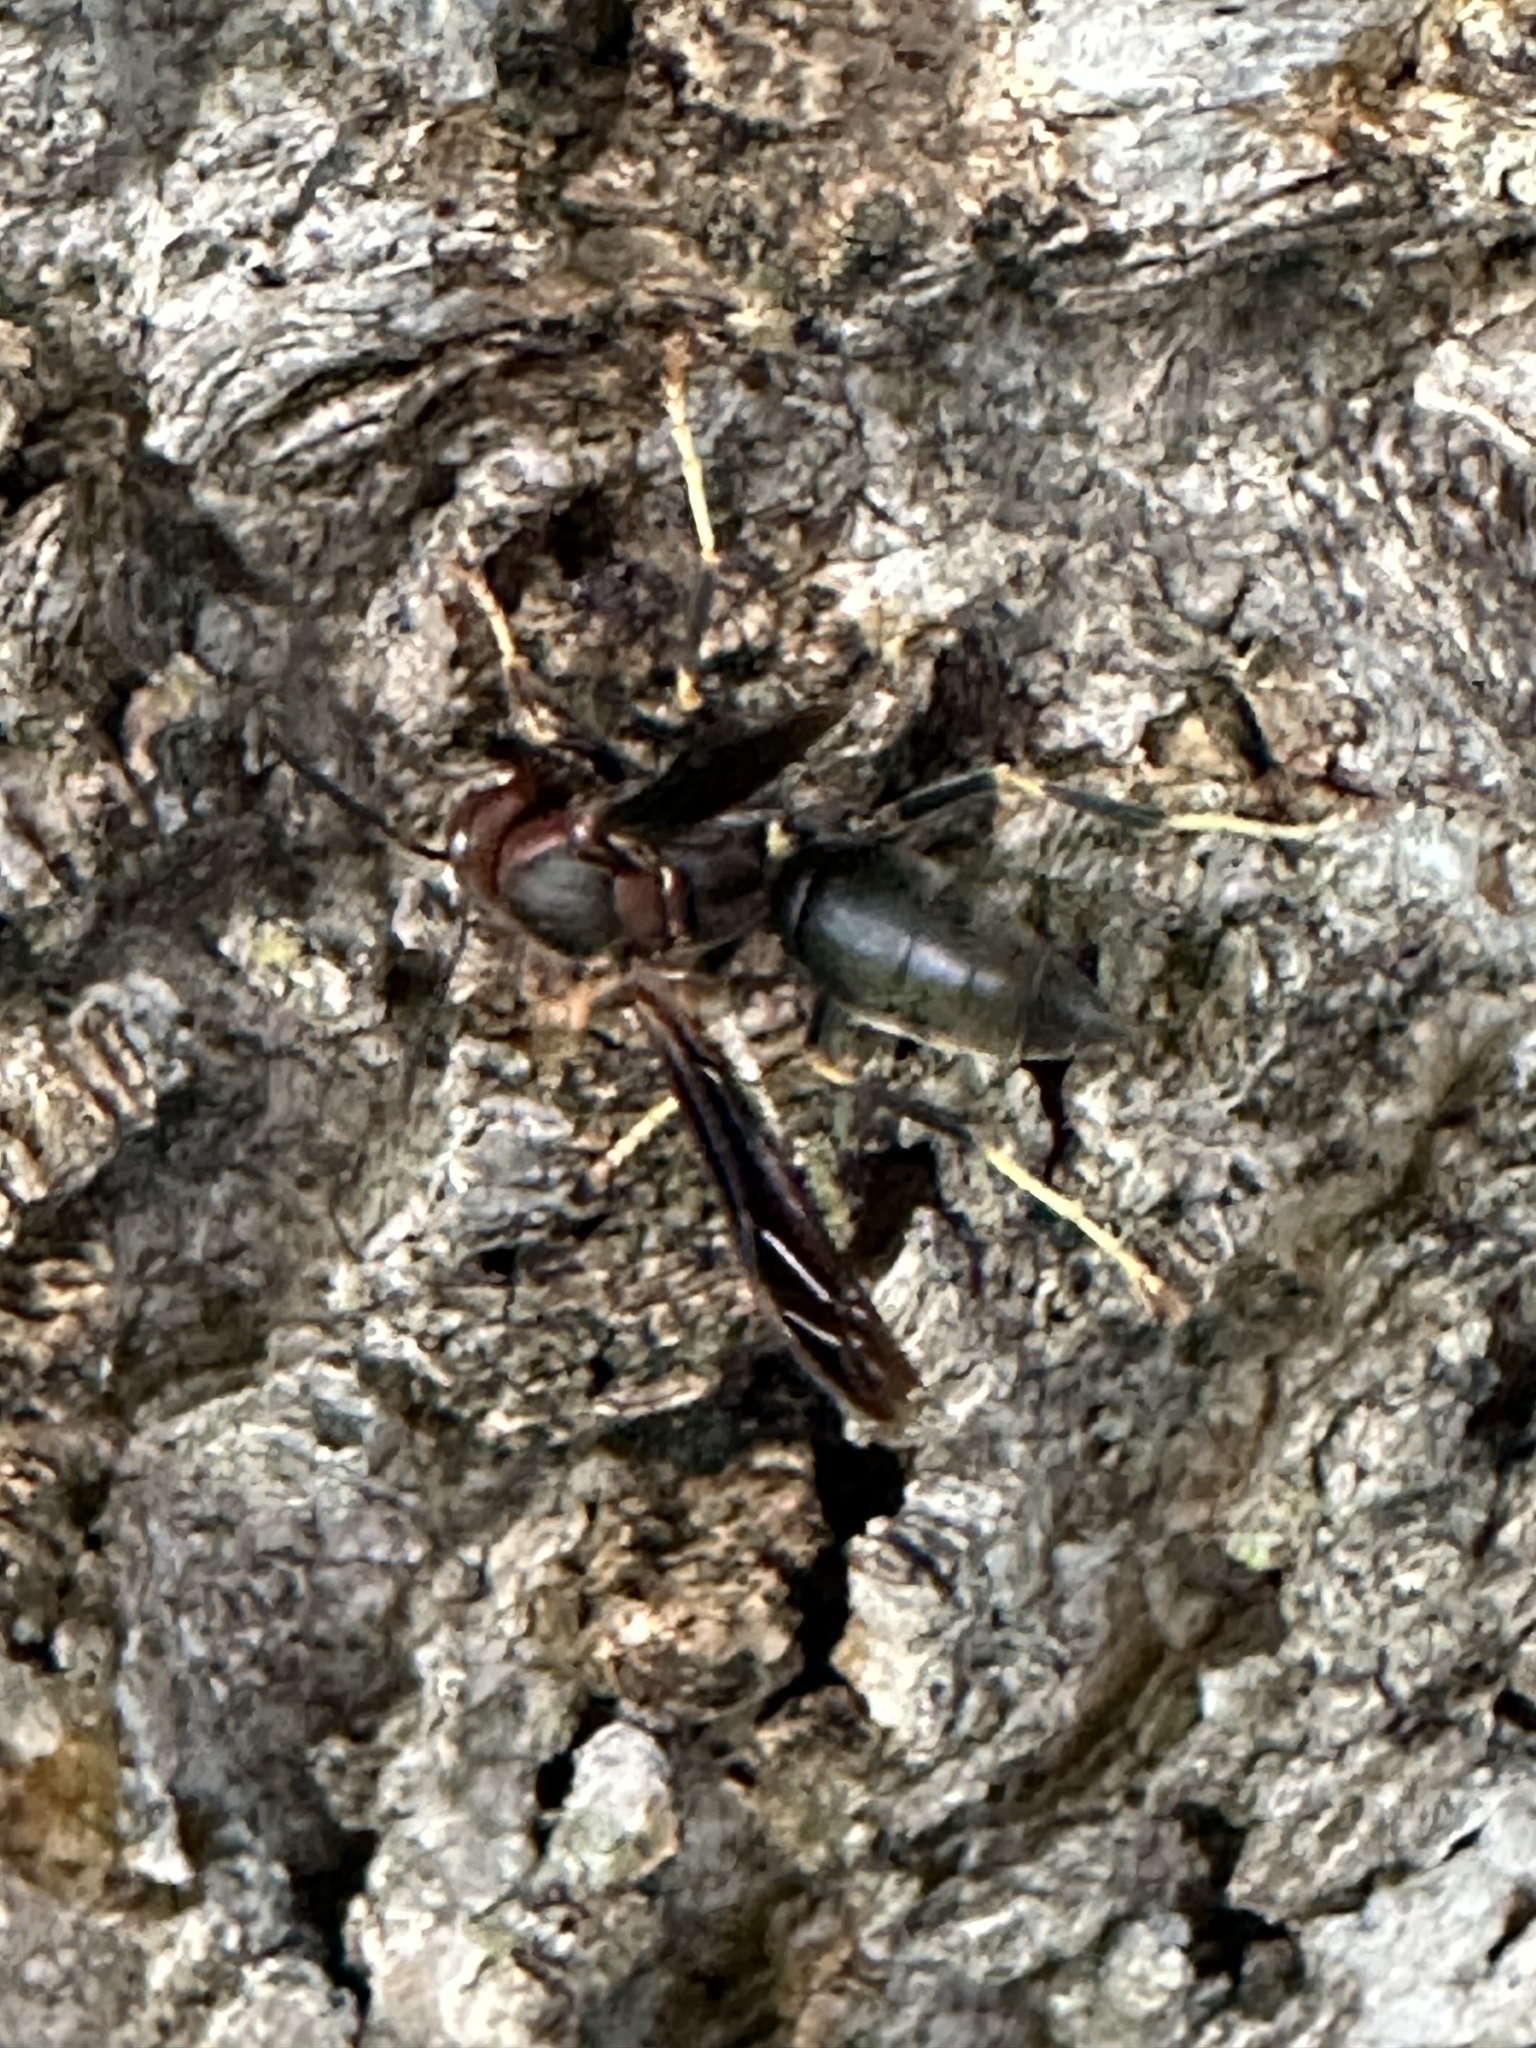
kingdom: Animalia
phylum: Arthropoda
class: Insecta
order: Hymenoptera
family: Eumenidae
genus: Polistes
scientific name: Polistes metricus
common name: Metric paper wasp
